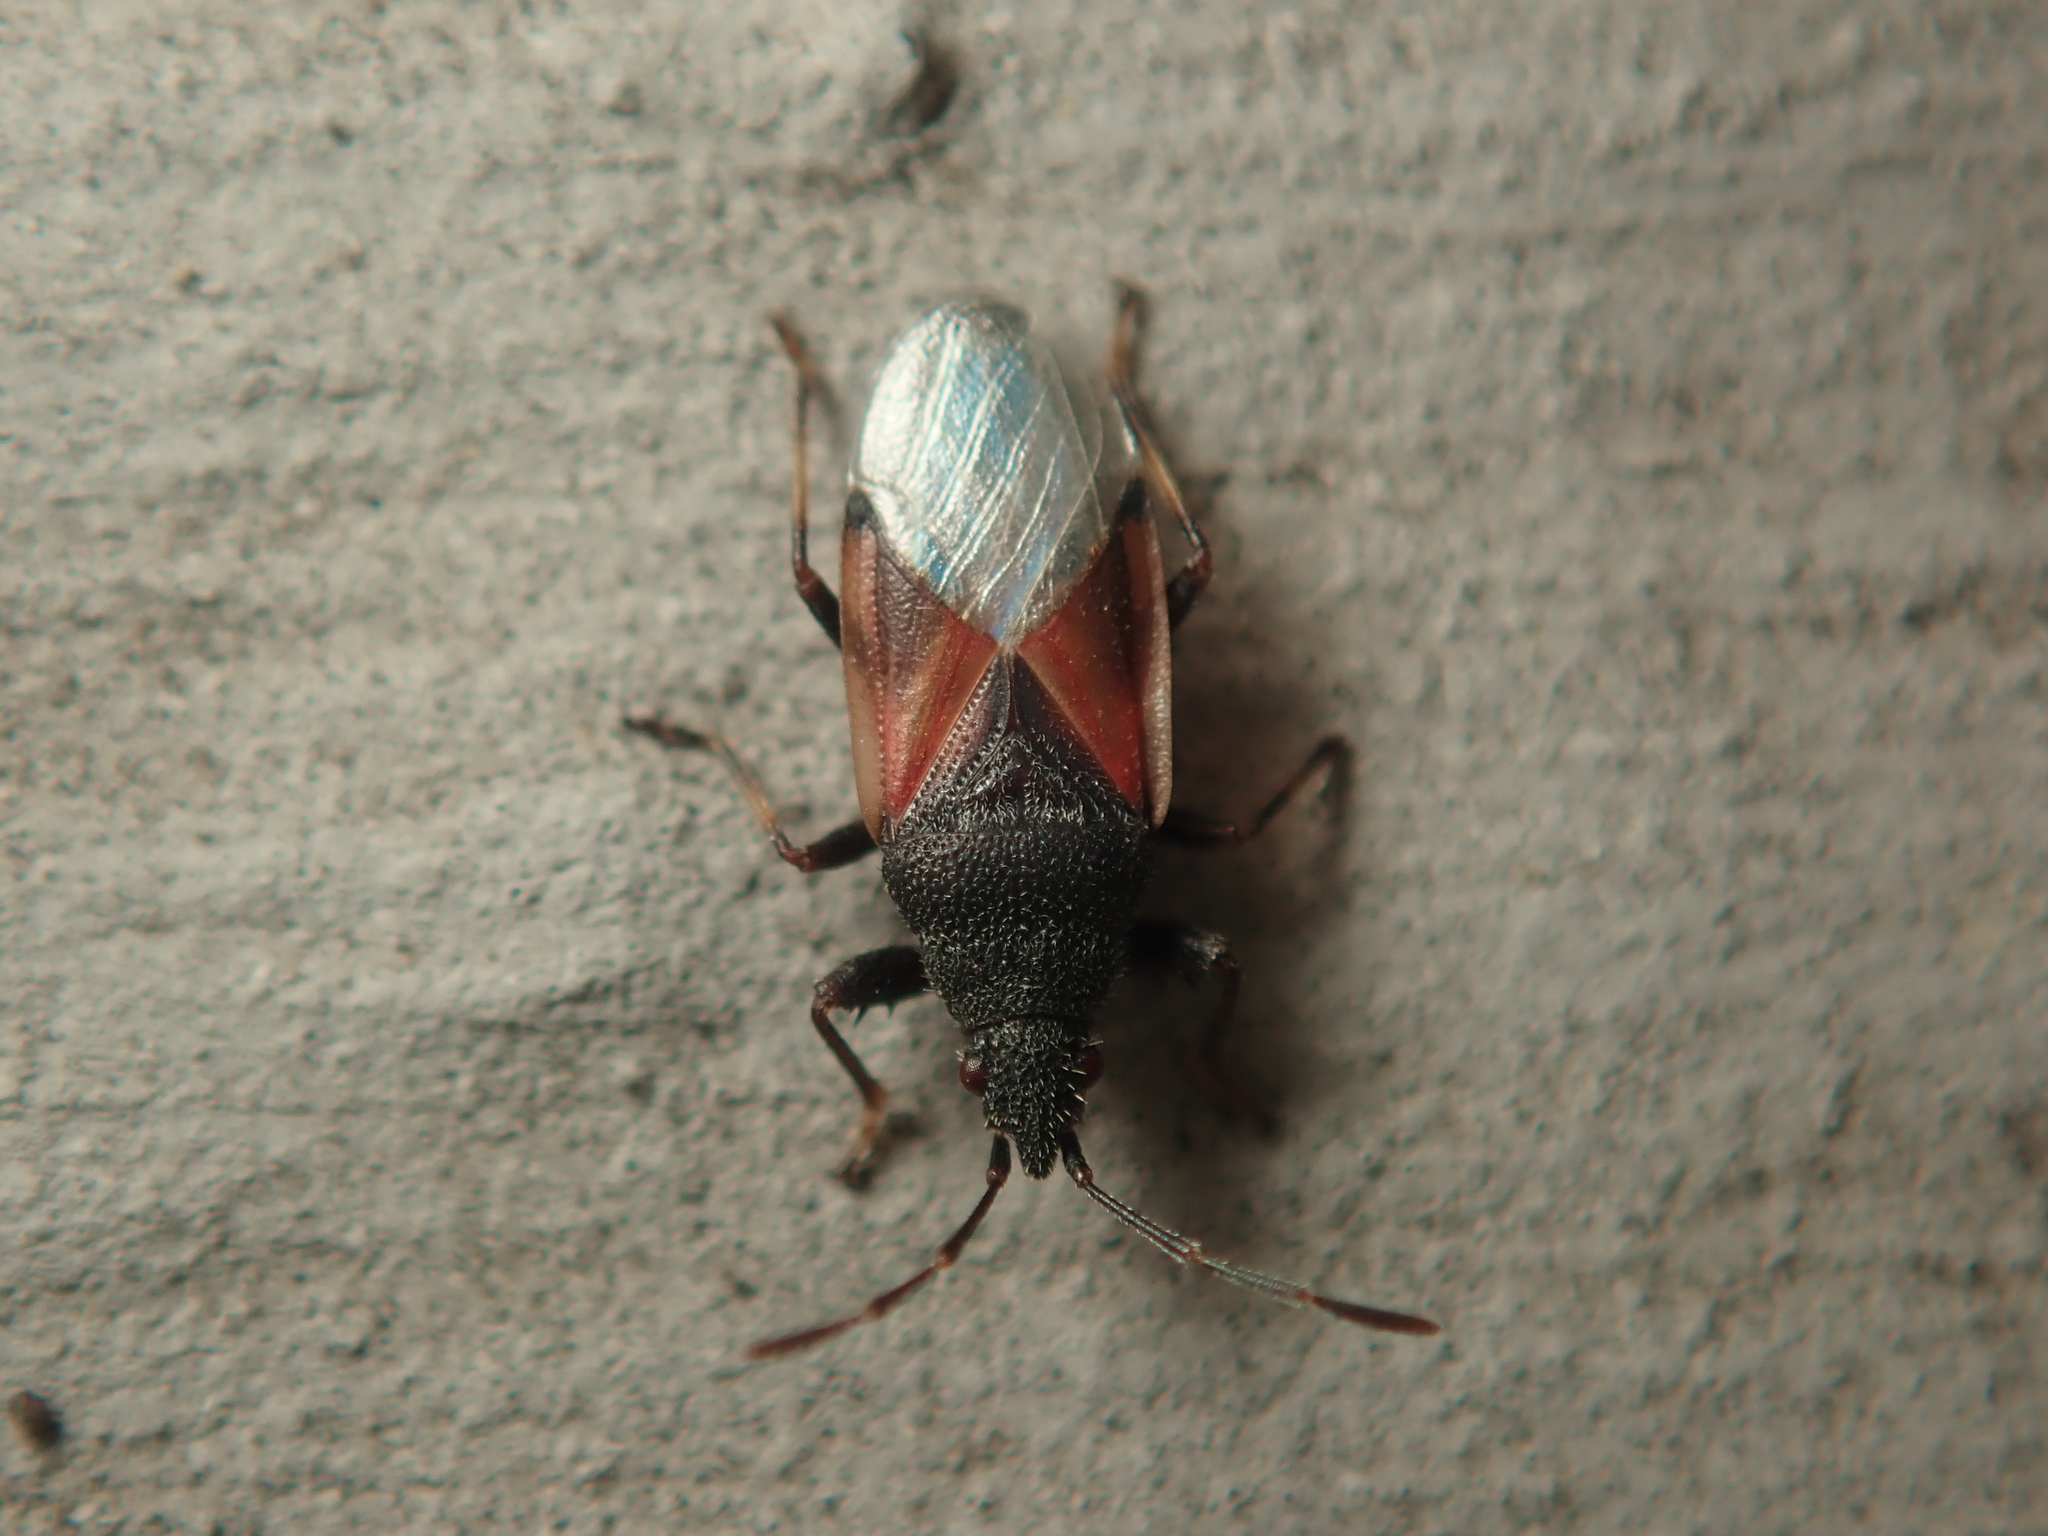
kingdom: Animalia
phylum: Arthropoda
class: Insecta
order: Hemiptera
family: Oxycarenidae
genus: Oxycarenus
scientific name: Oxycarenus lavaterae
